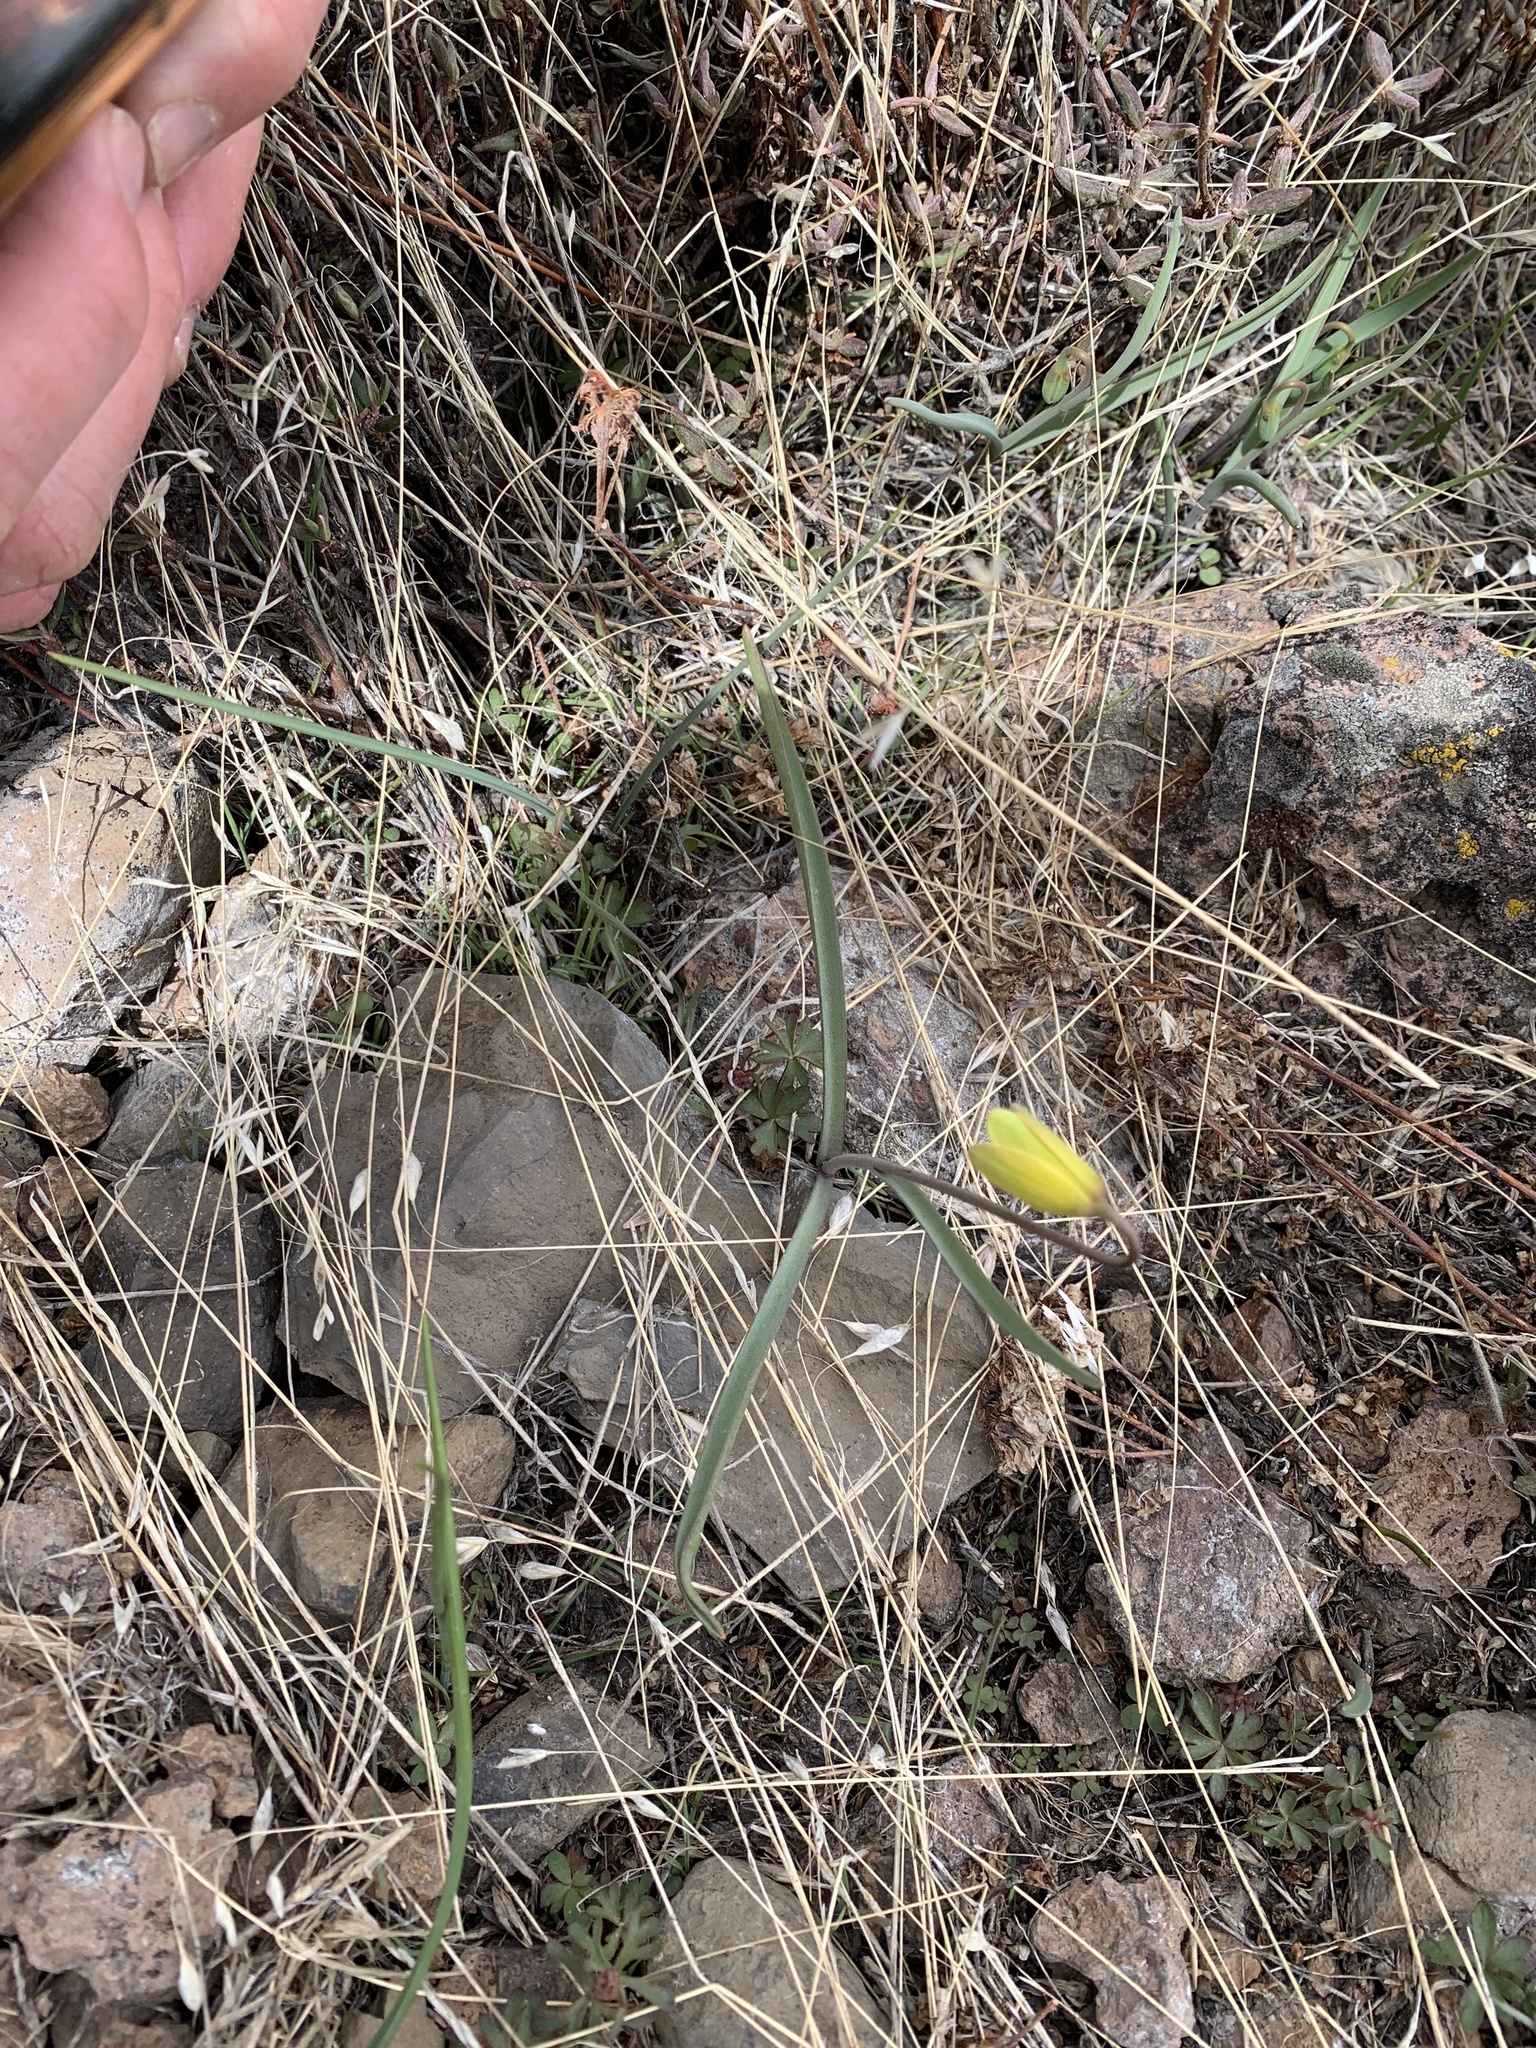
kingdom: Plantae
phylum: Tracheophyta
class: Liliopsida
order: Liliales
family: Liliaceae
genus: Fritillaria
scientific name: Fritillaria pudica
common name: Yellow fritillary
